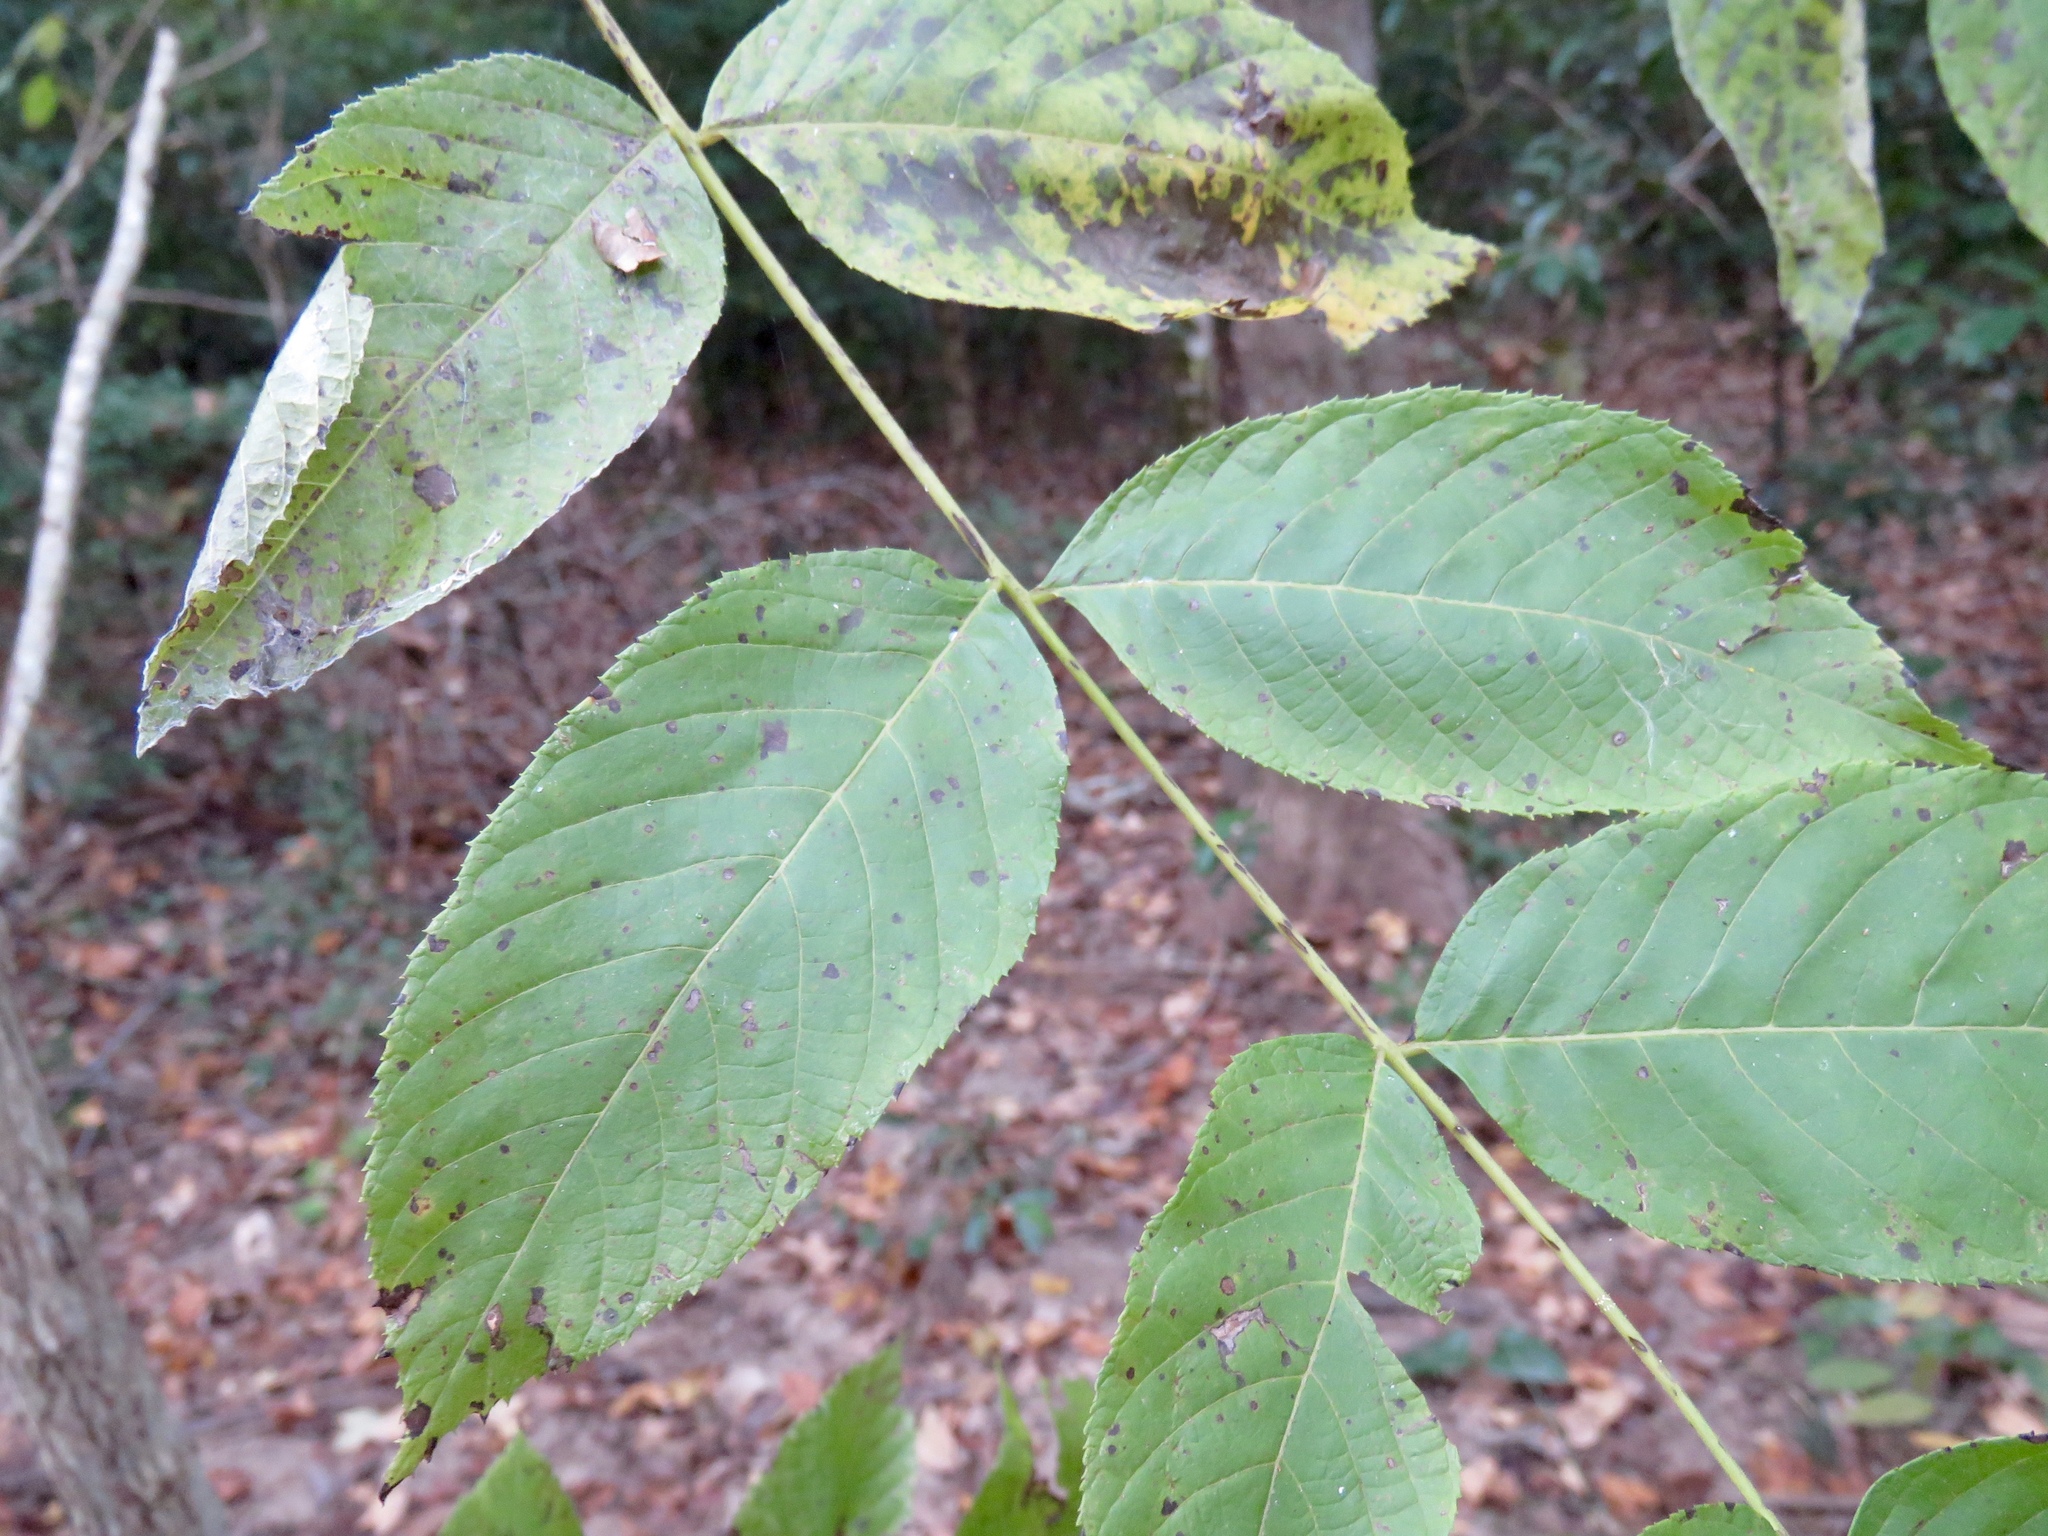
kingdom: Plantae
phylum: Tracheophyta
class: Magnoliopsida
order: Fagales
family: Juglandaceae
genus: Juglans
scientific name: Juglans nigra
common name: Black walnut
